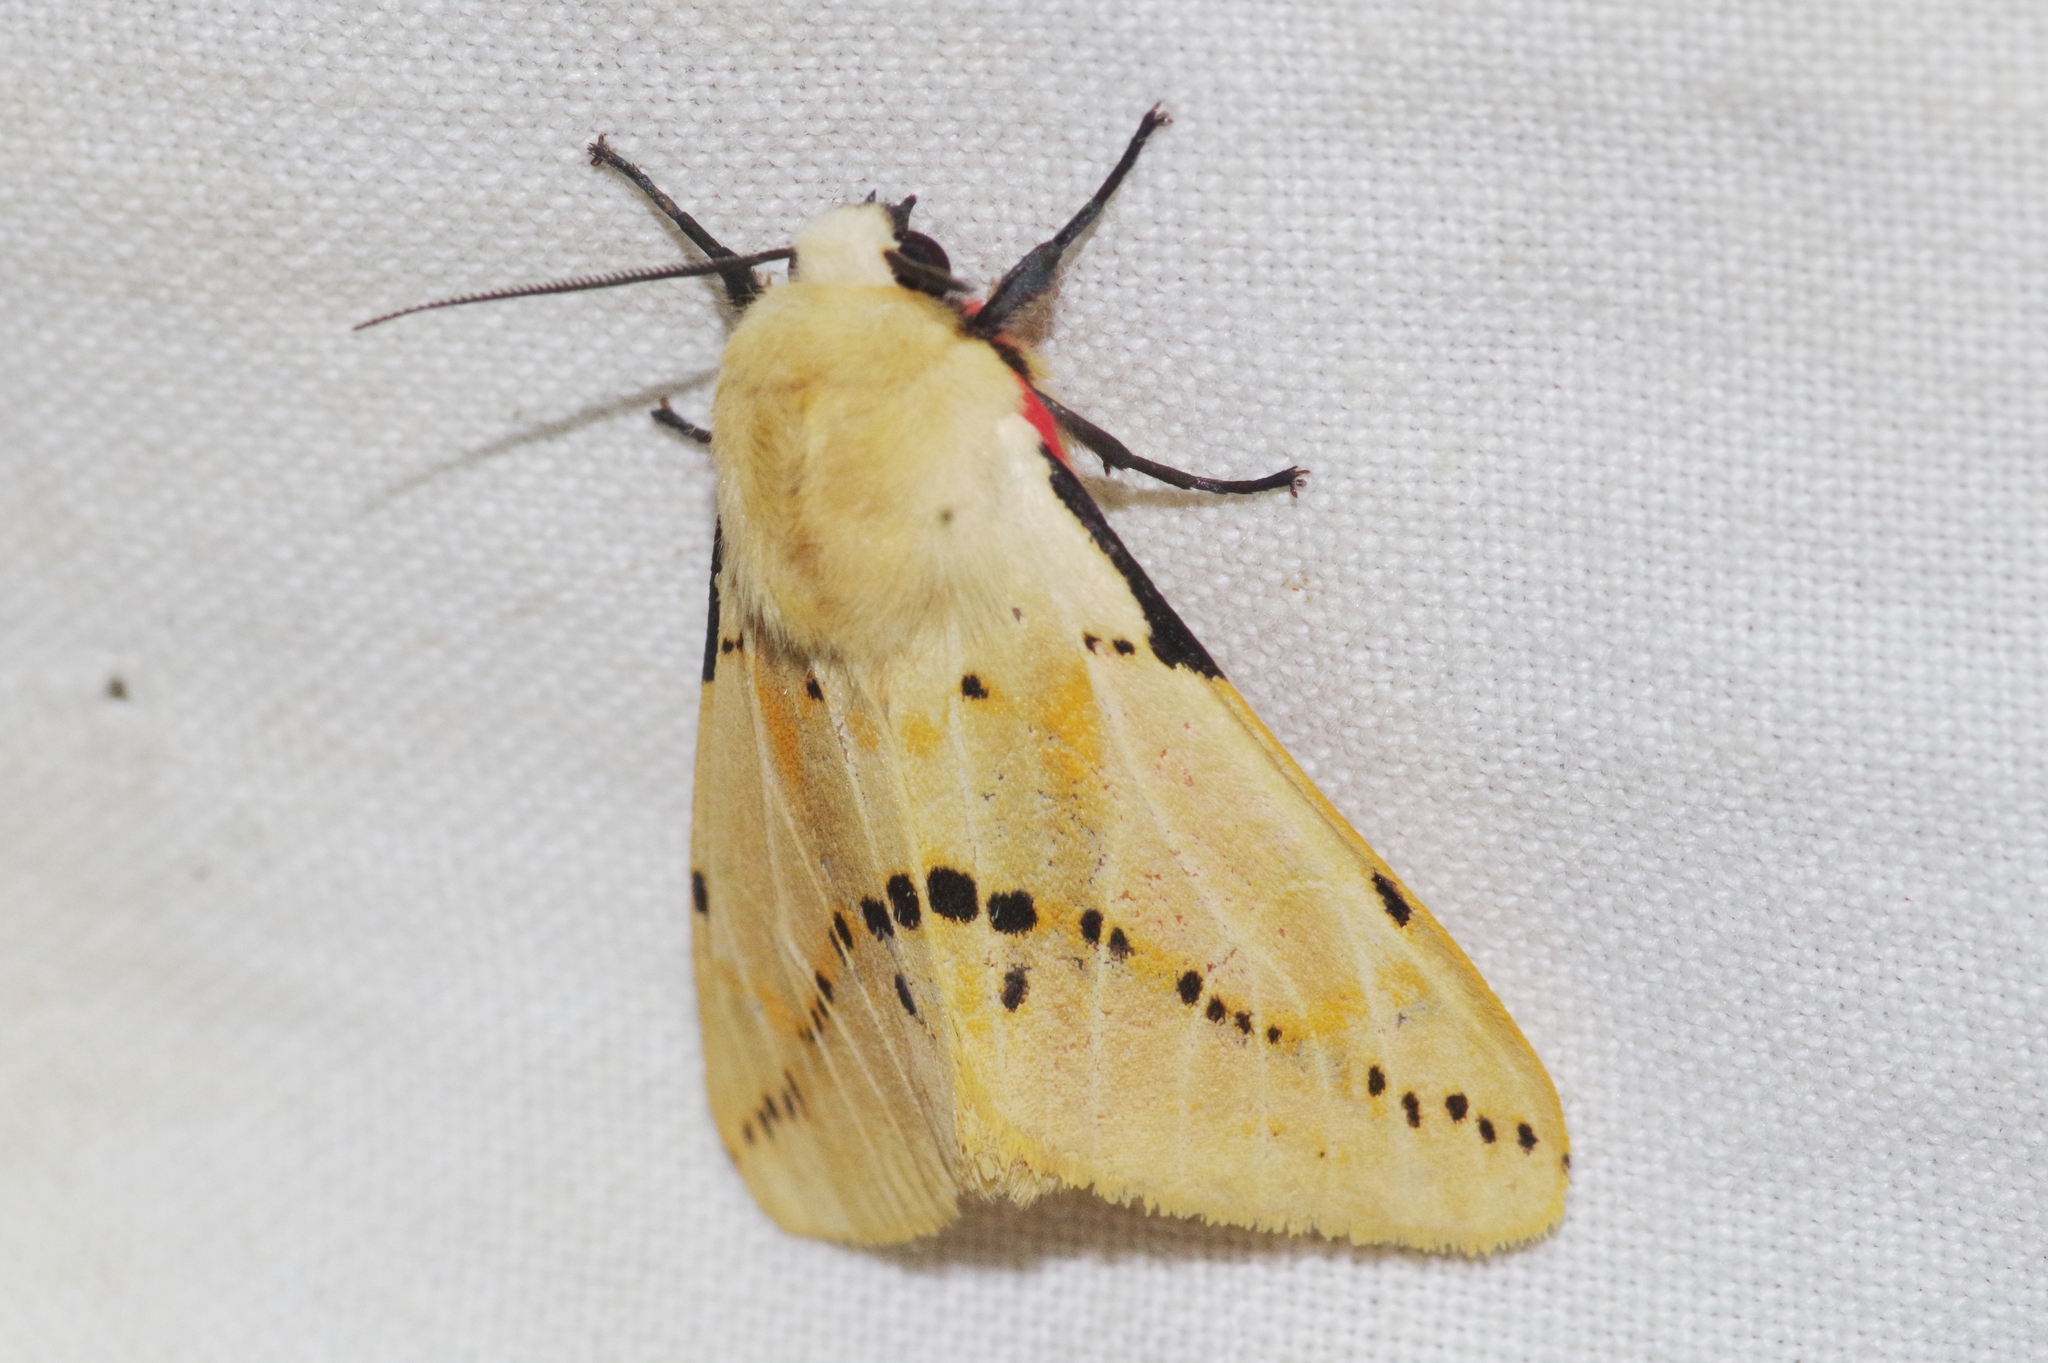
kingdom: Animalia
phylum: Arthropoda
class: Insecta
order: Lepidoptera
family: Erebidae
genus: Spilarctia
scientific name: Spilarctia seriatopunctata
